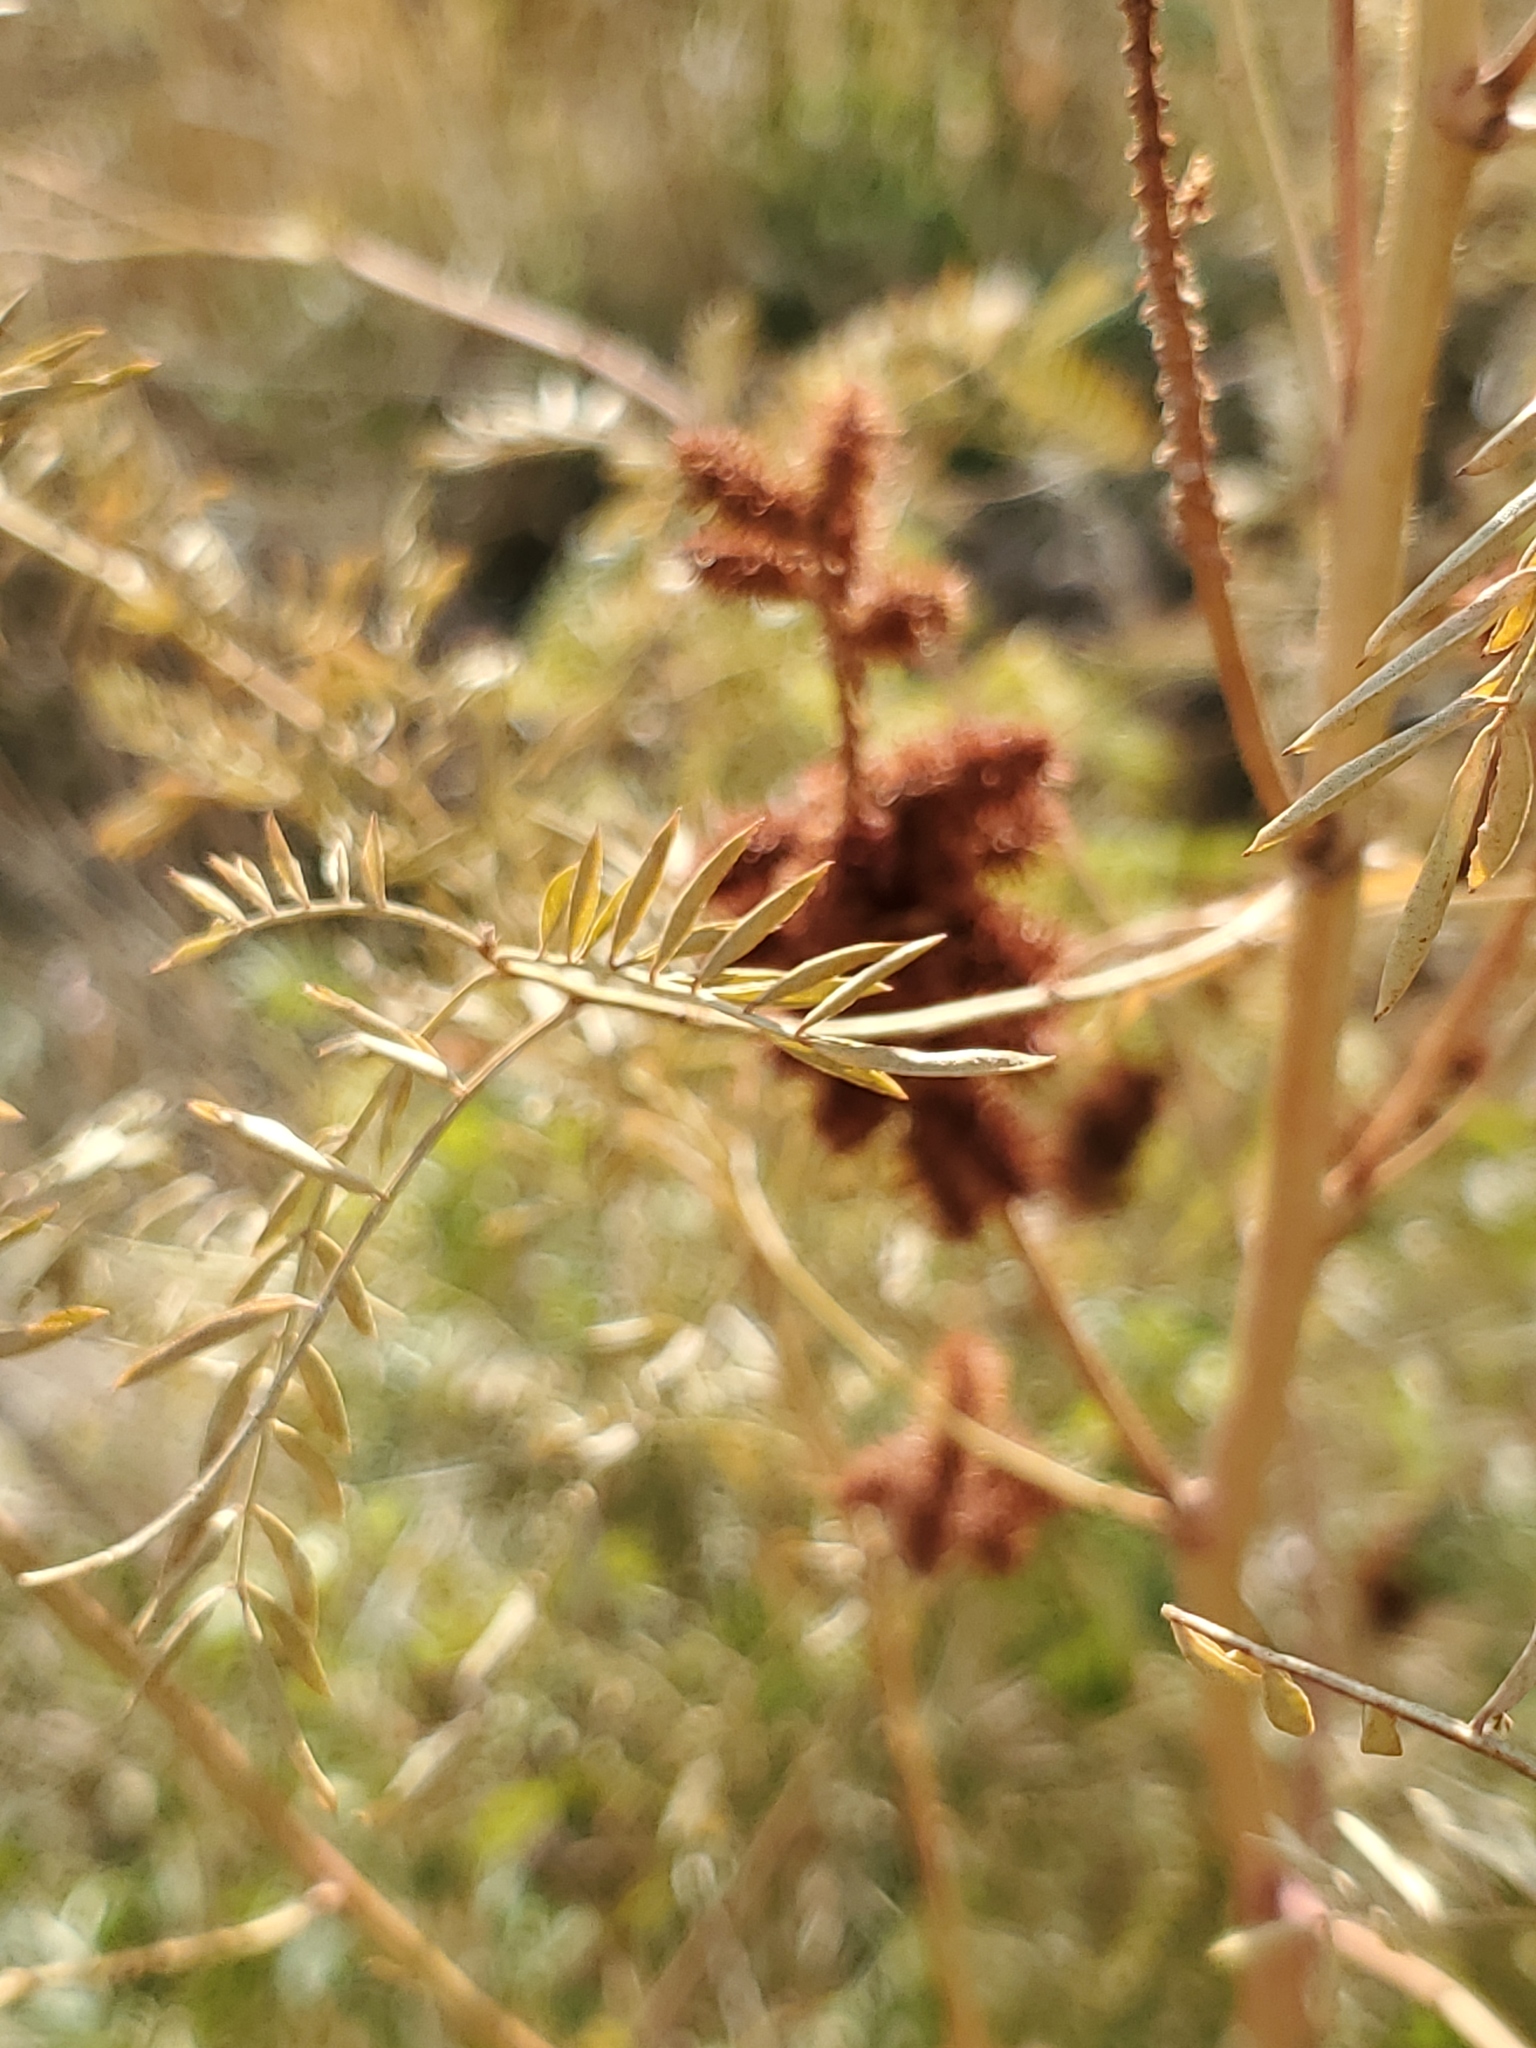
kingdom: Plantae
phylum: Tracheophyta
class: Magnoliopsida
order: Fabales
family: Fabaceae
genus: Glycyrrhiza
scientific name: Glycyrrhiza lepidota
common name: American liquorice
